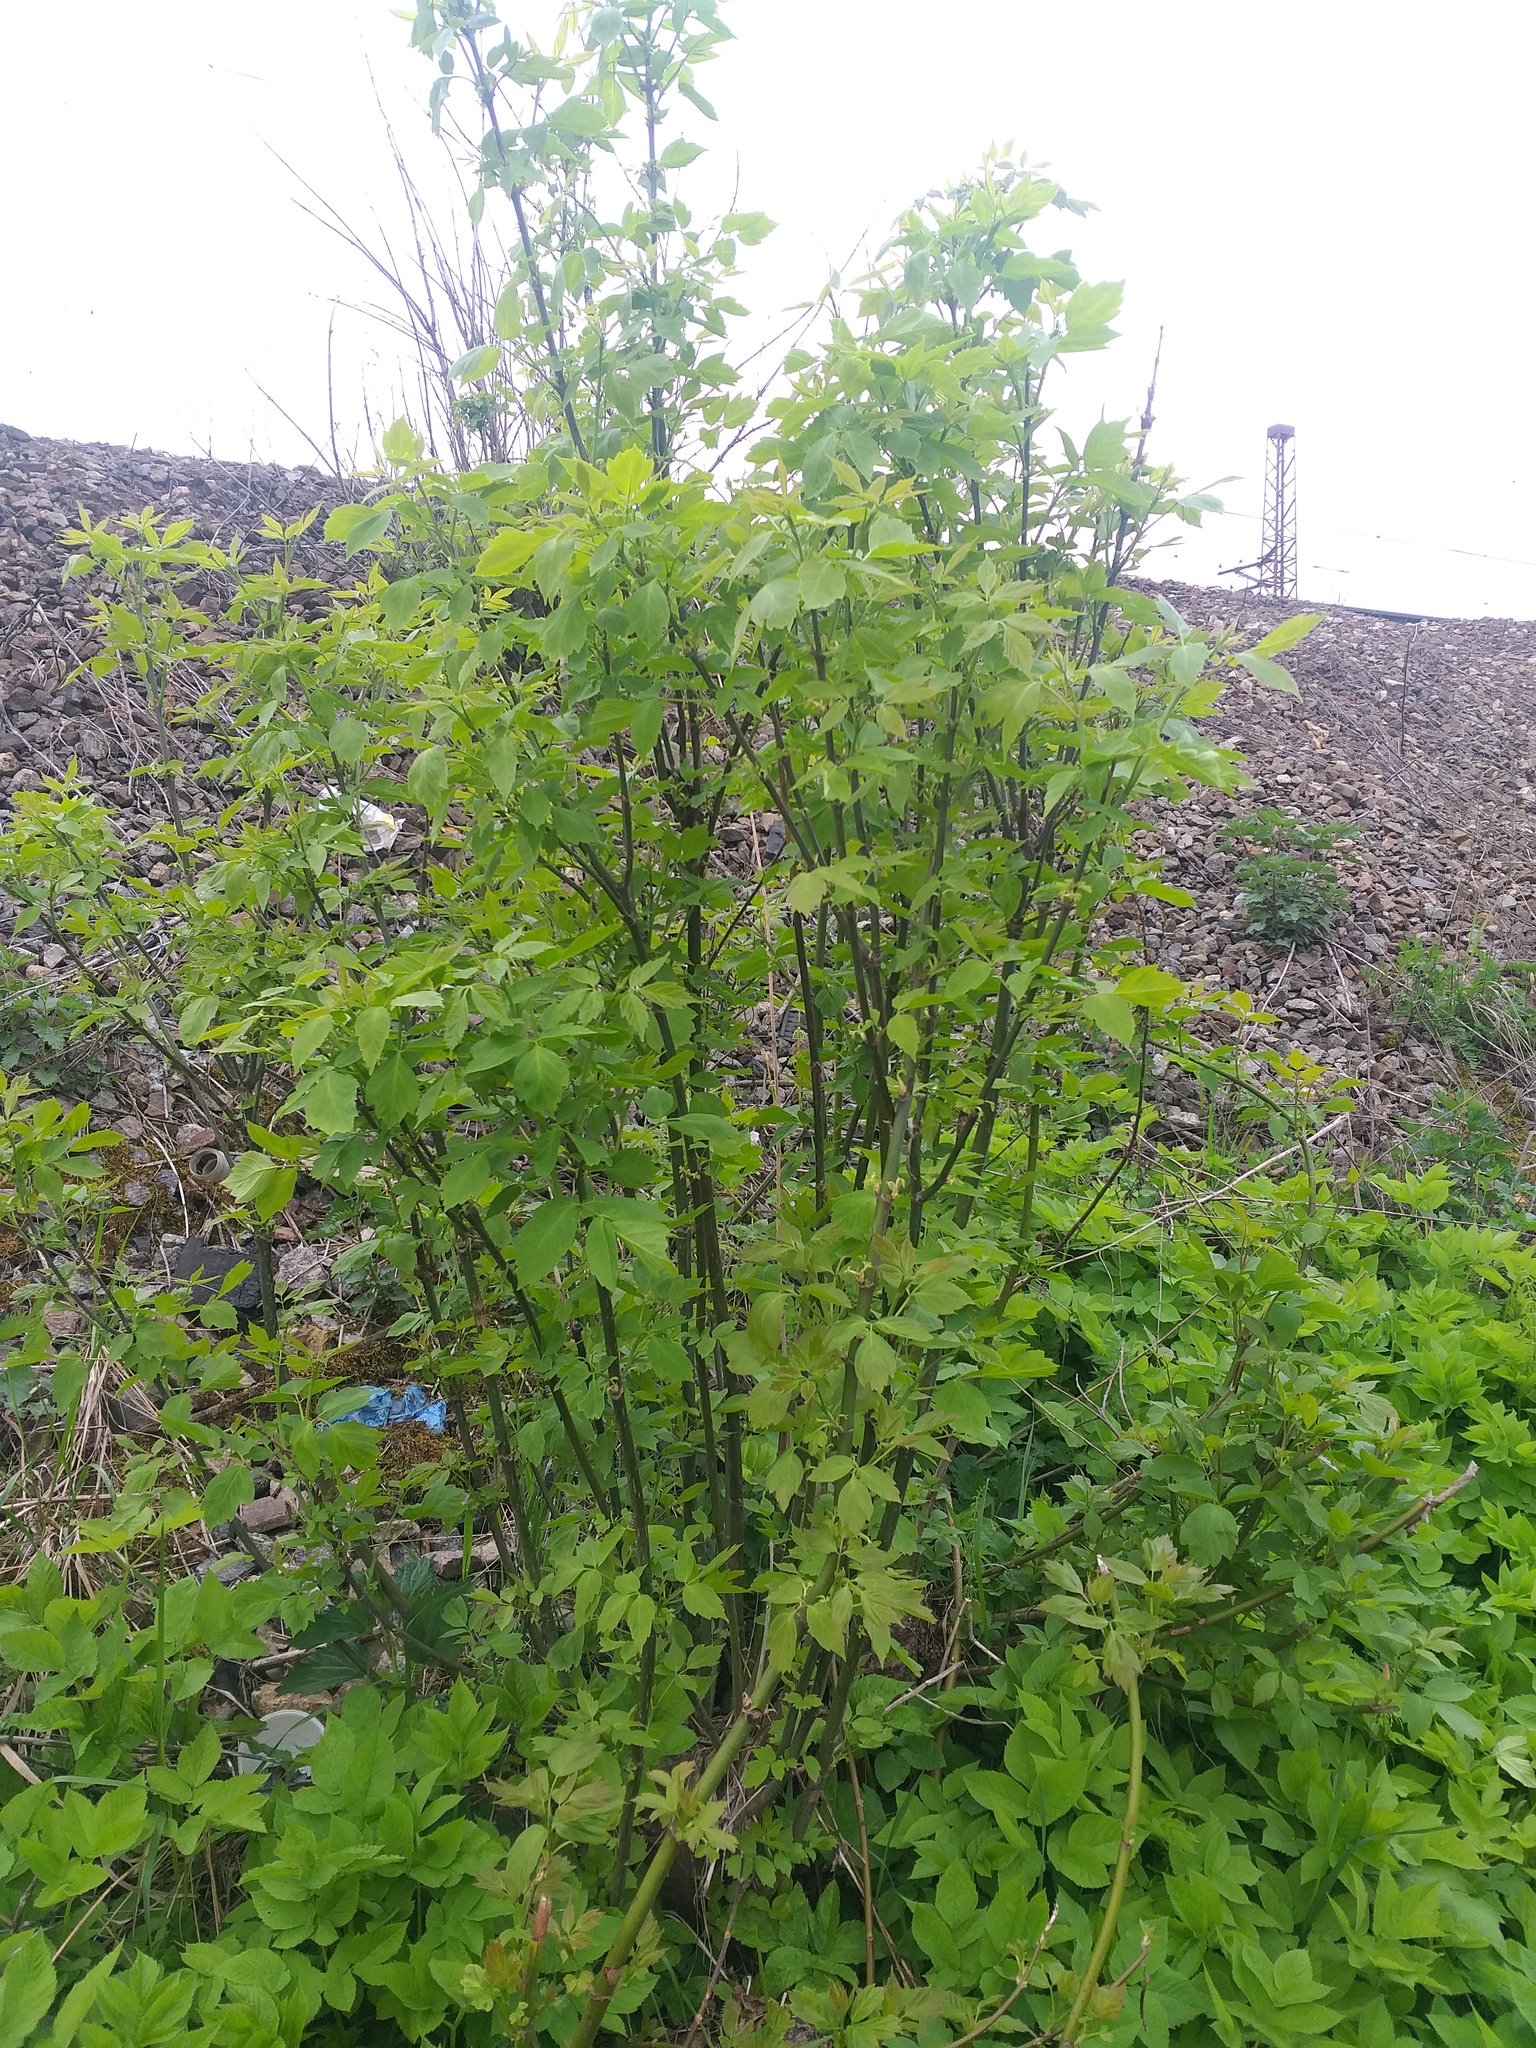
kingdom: Plantae
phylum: Tracheophyta
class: Magnoliopsida
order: Sapindales
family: Sapindaceae
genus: Acer
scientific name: Acer negundo
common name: Ashleaf maple
